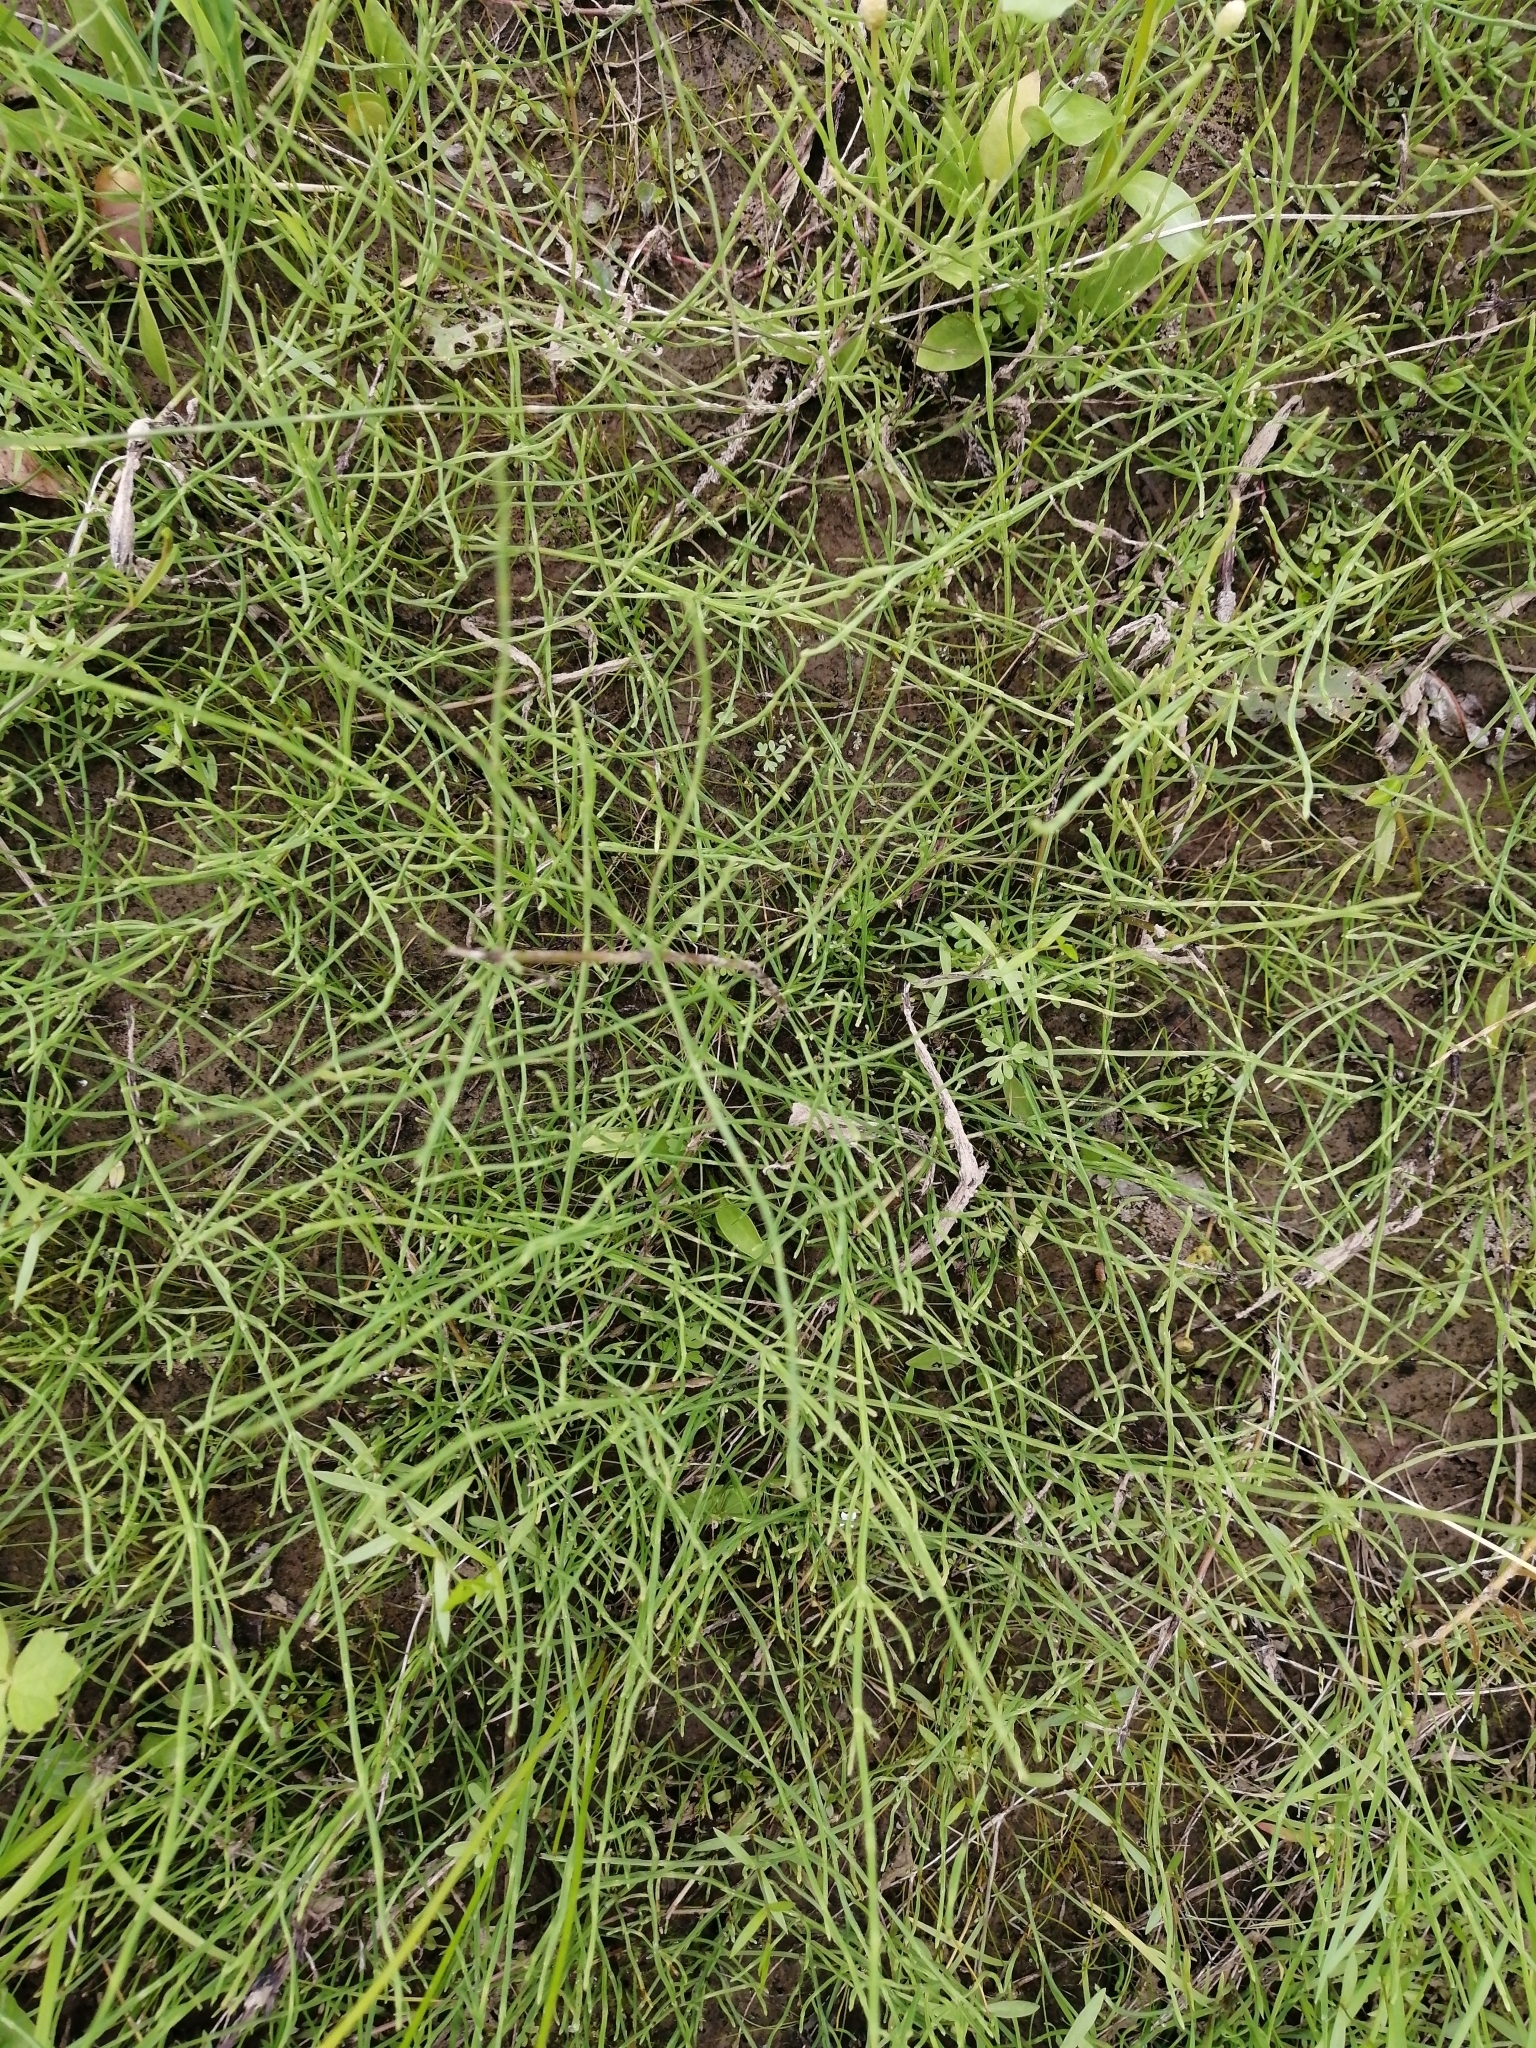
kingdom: Plantae
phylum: Tracheophyta
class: Polypodiopsida
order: Equisetales
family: Equisetaceae
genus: Equisetum
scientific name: Equisetum arvense
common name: Field horsetail
